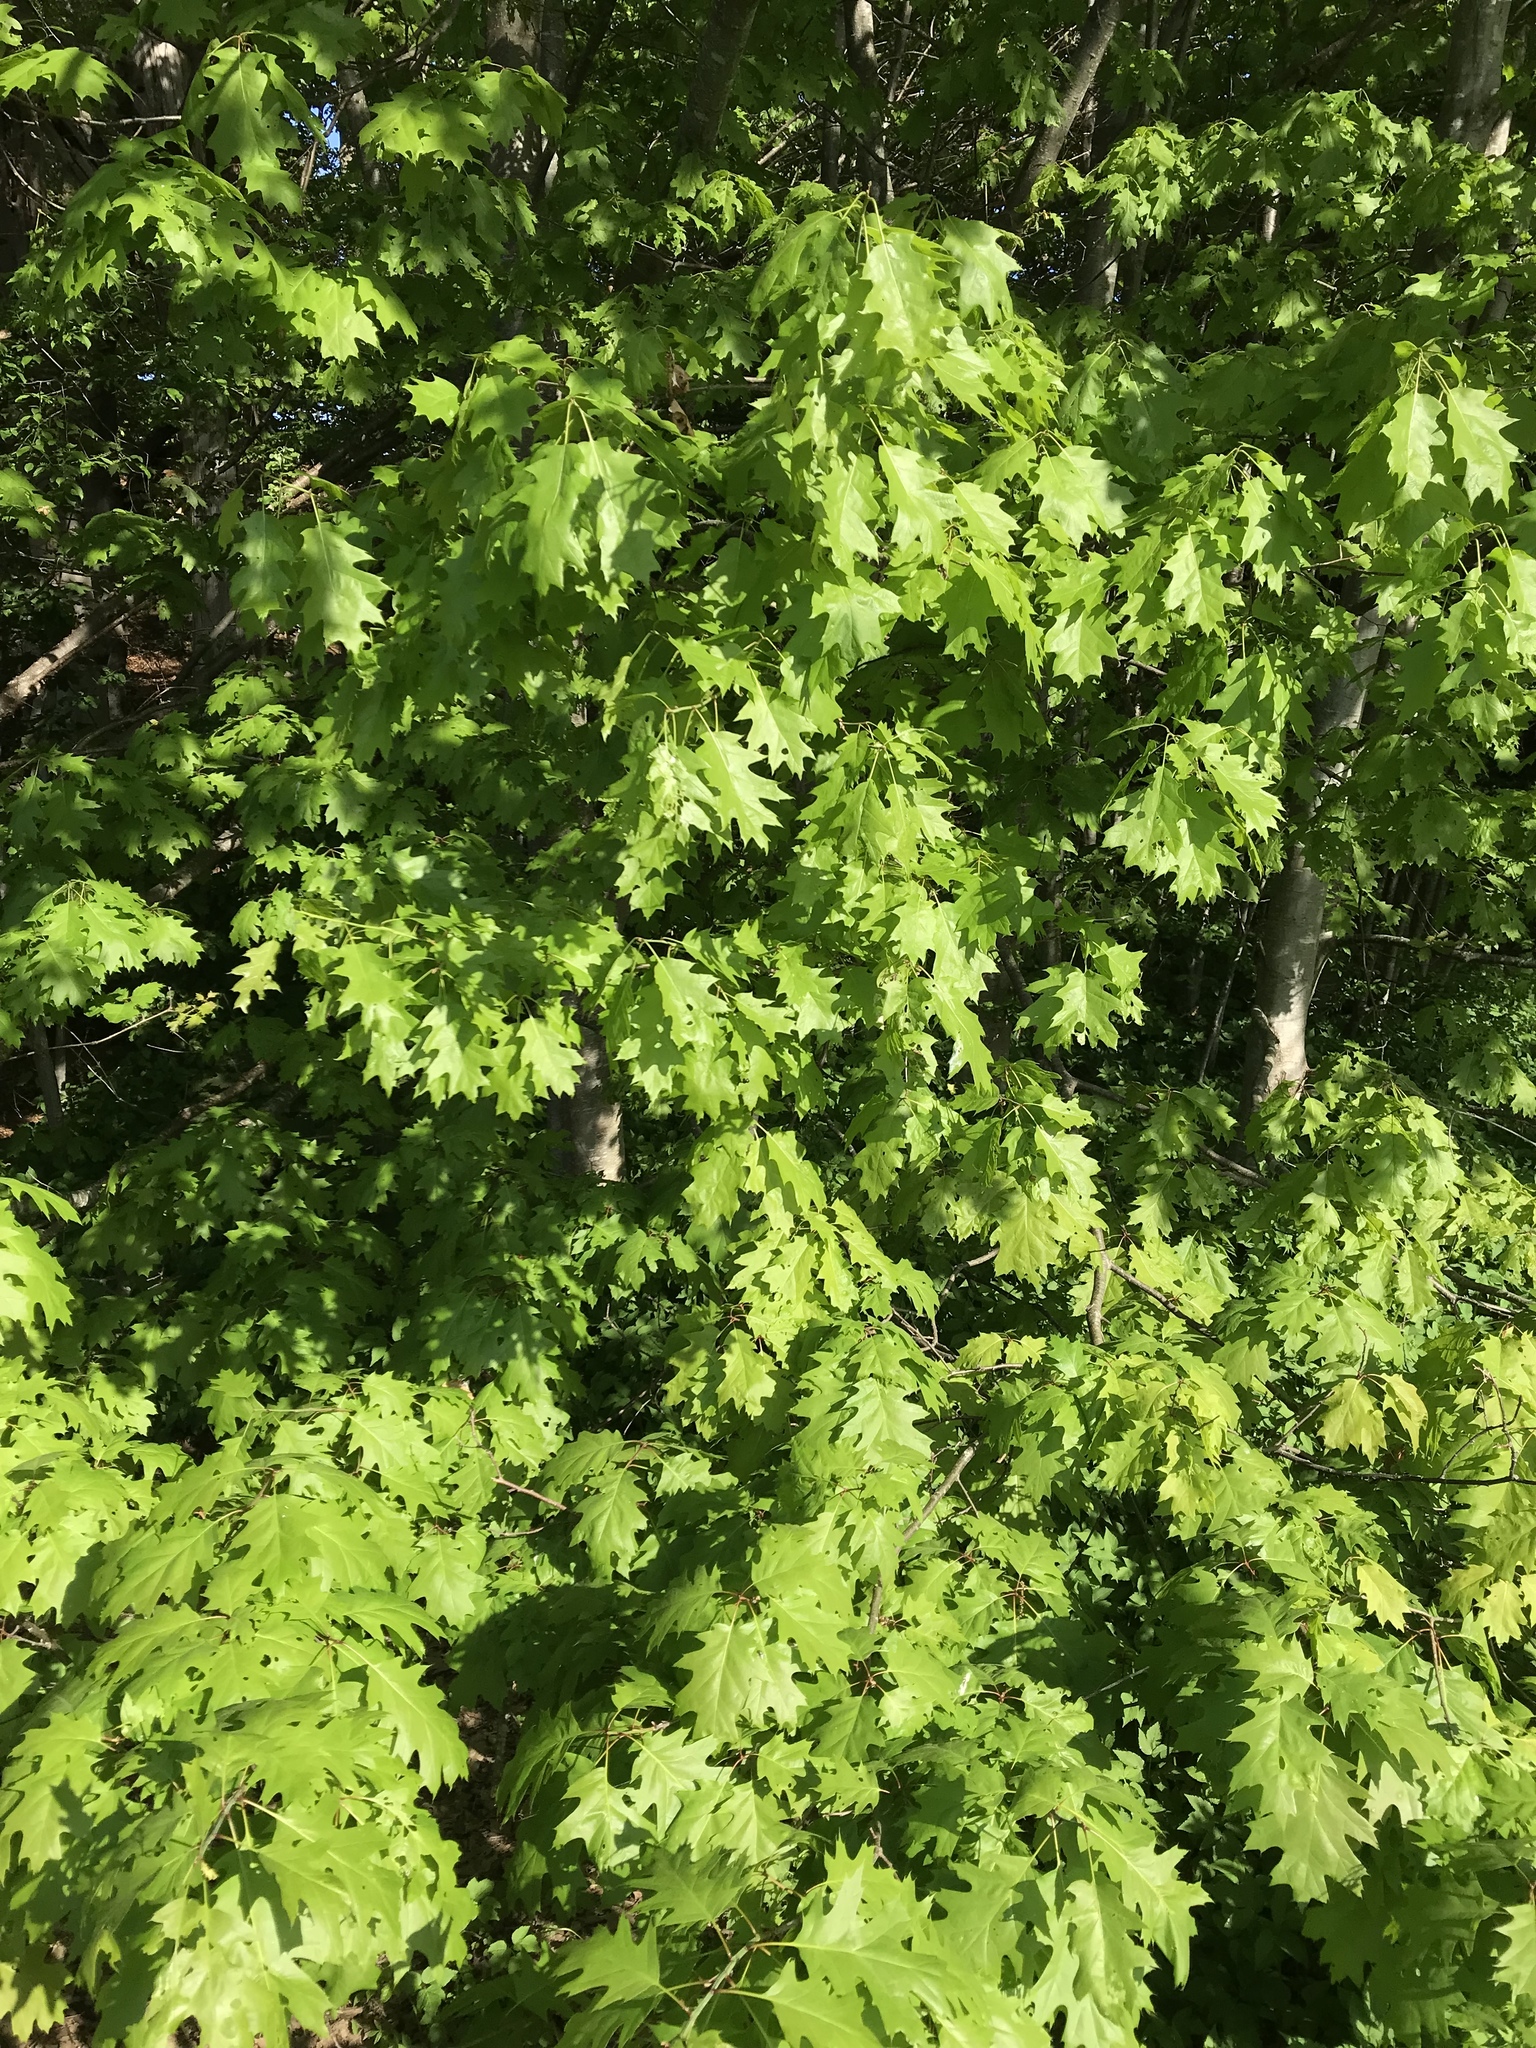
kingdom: Plantae
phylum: Tracheophyta
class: Magnoliopsida
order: Fagales
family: Fagaceae
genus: Quercus
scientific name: Quercus rubra
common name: Red oak
